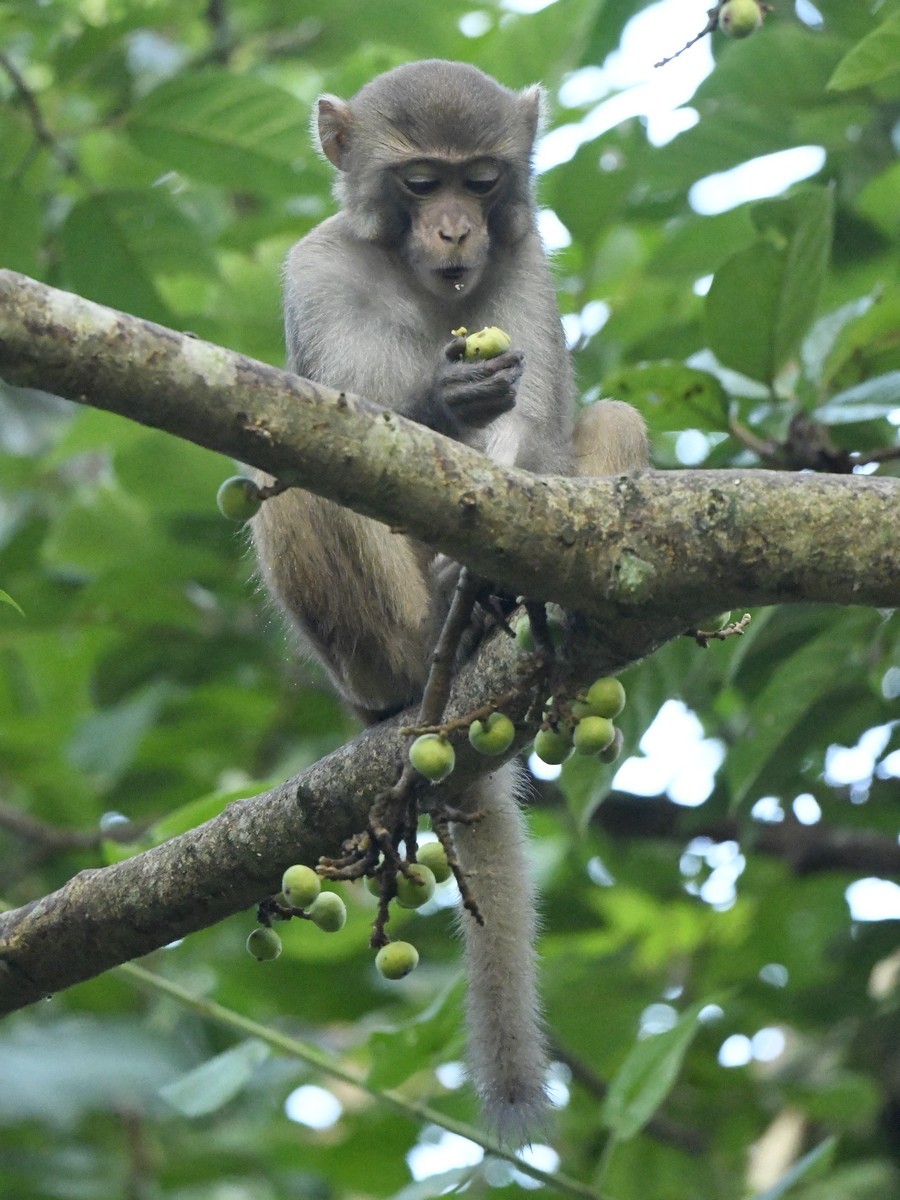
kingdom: Animalia
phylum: Chordata
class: Mammalia
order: Primates
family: Cercopithecidae
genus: Macaca
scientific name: Macaca mulatta
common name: Rhesus monkey
